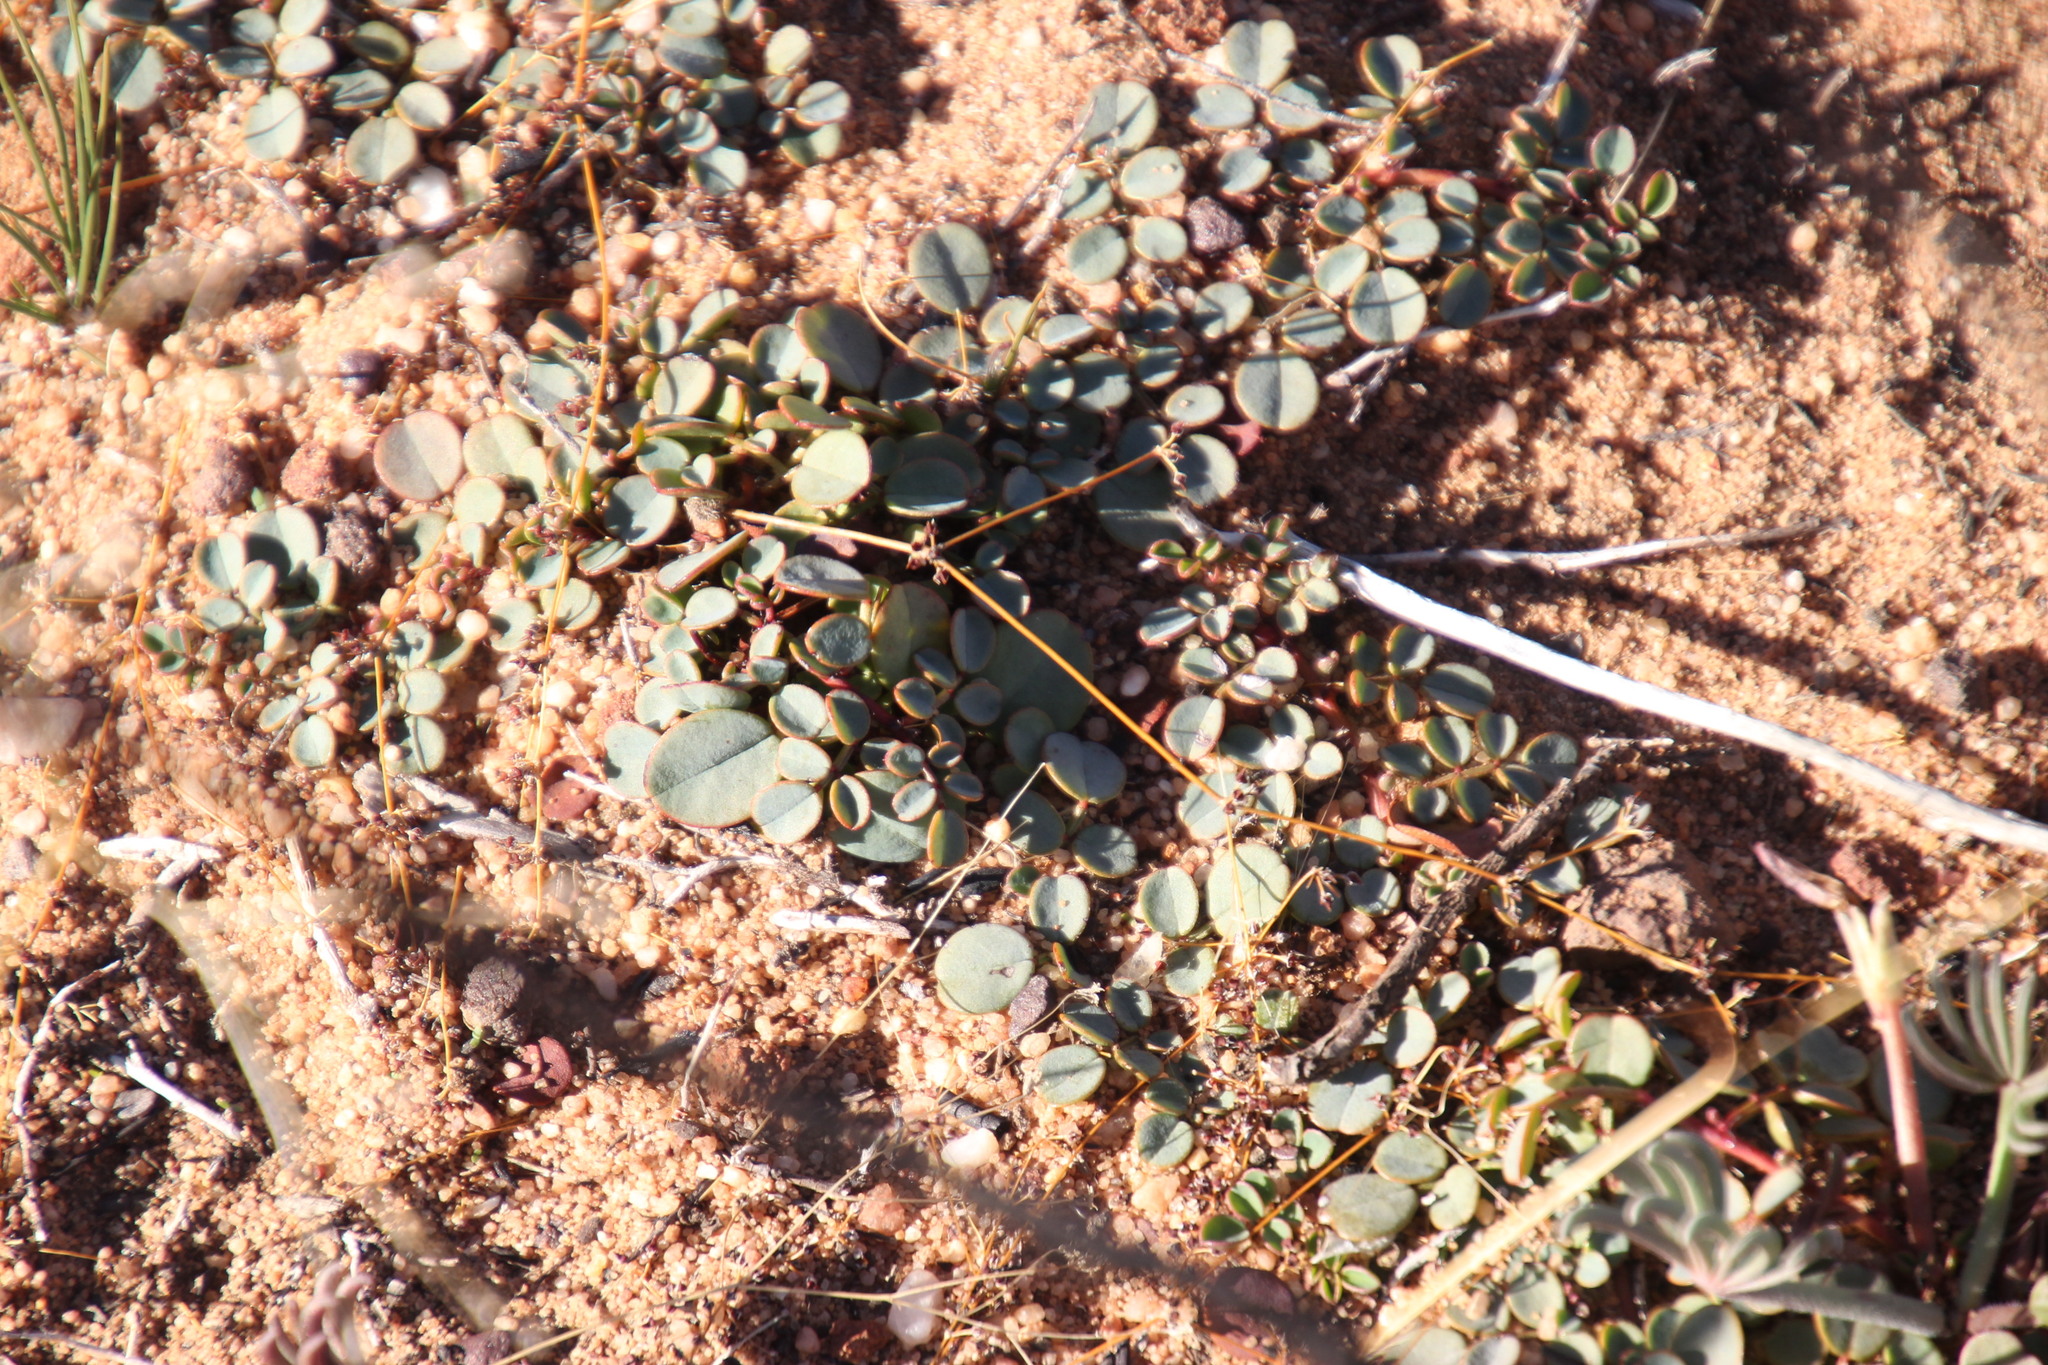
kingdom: Plantae
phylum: Tracheophyta
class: Magnoliopsida
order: Fabales
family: Fabaceae
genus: Indigofera
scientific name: Indigofera humifusa
